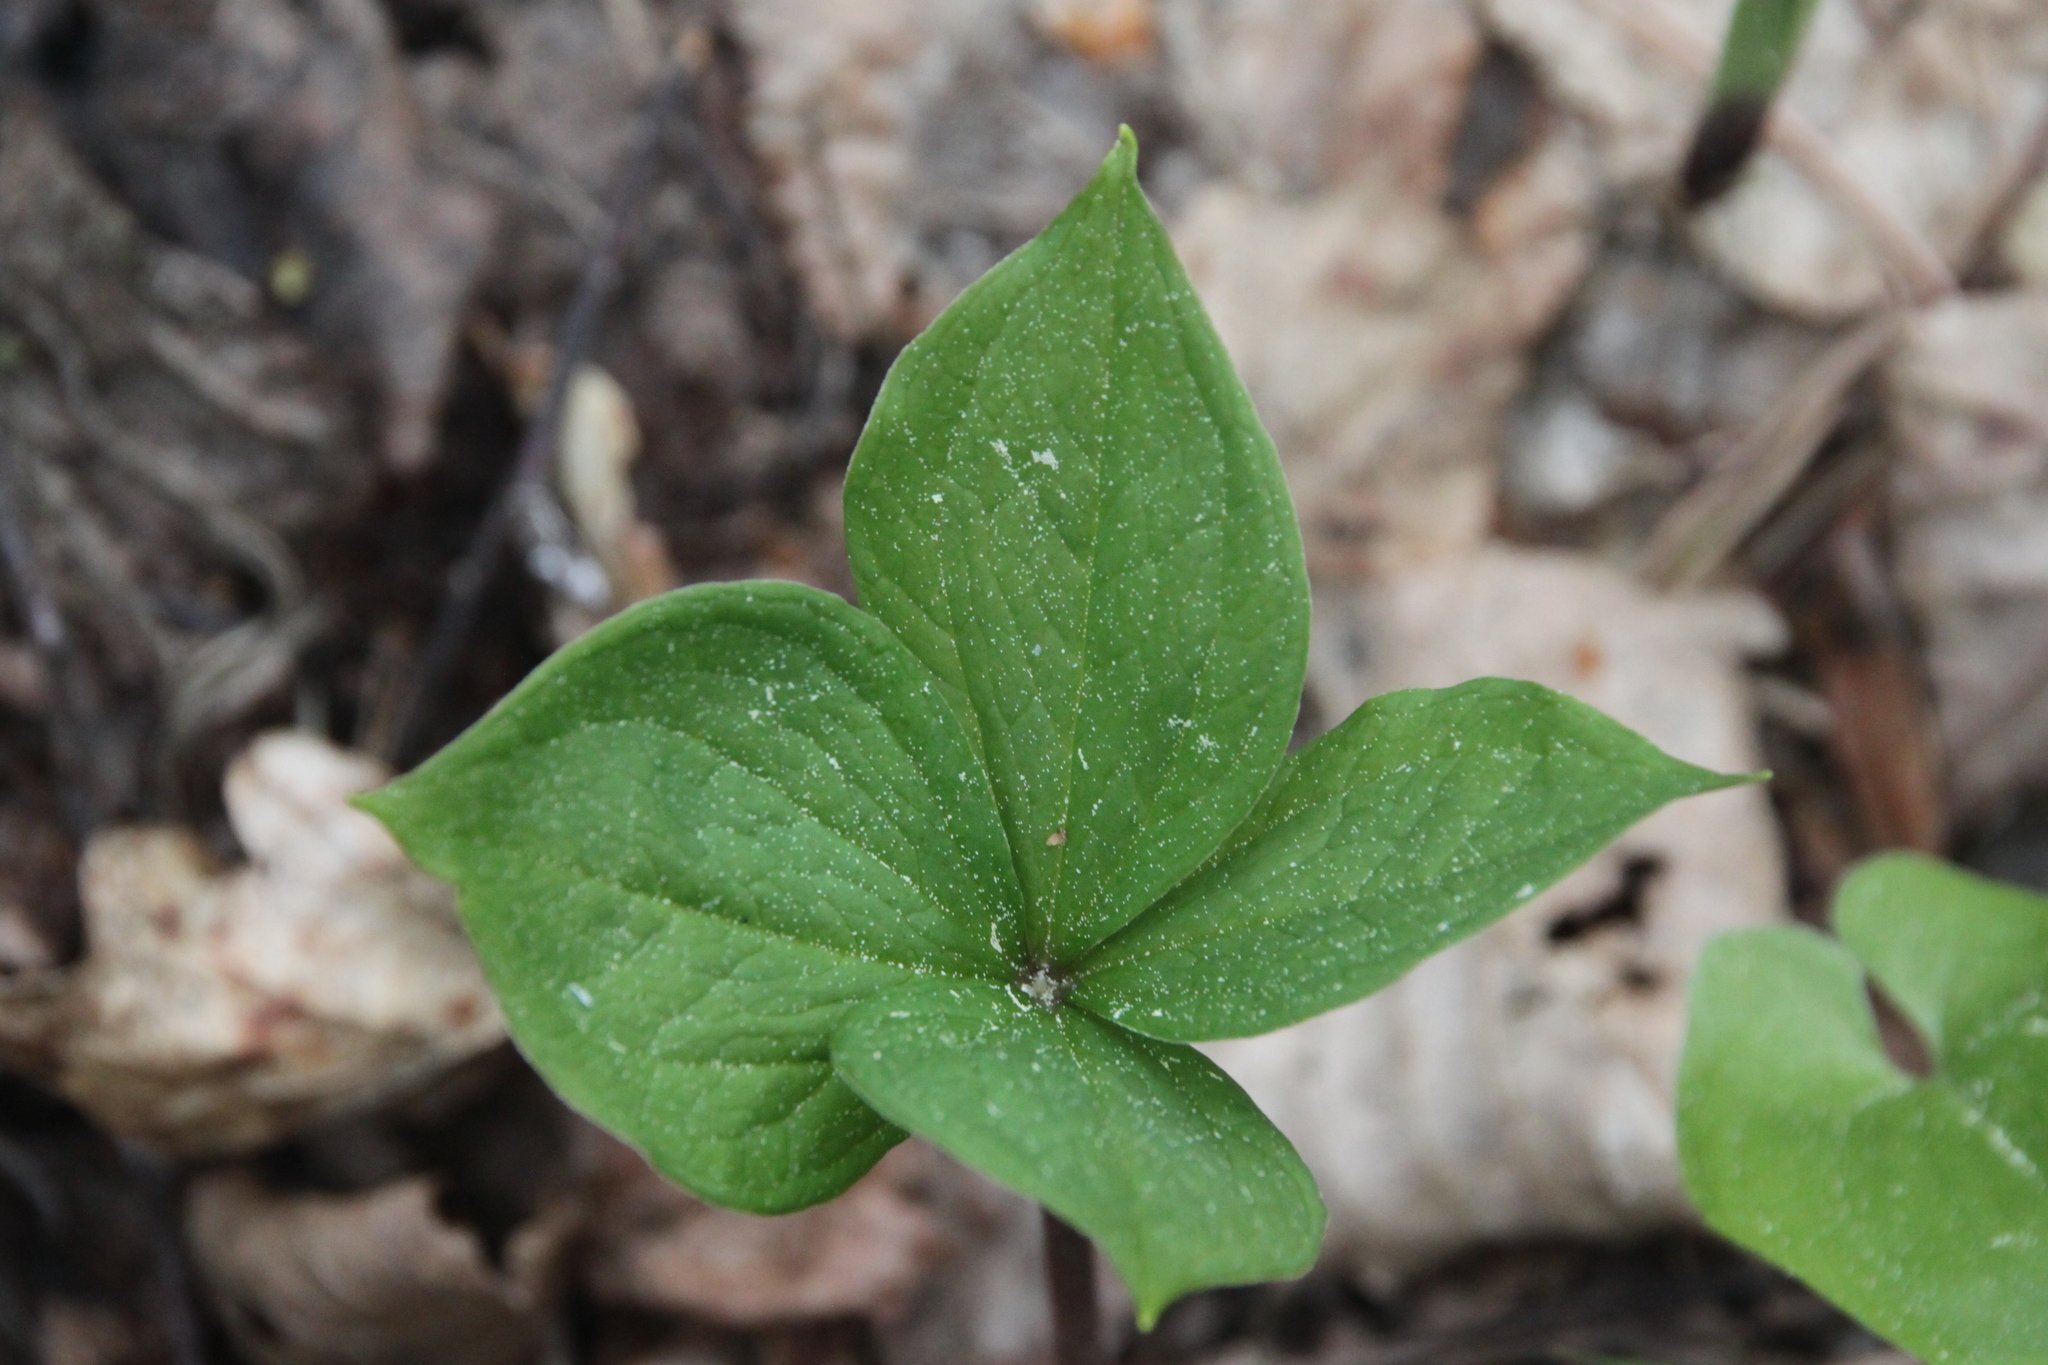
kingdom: Plantae
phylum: Tracheophyta
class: Liliopsida
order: Liliales
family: Melanthiaceae
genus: Paris
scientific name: Paris quadrifolia
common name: Herb-paris
